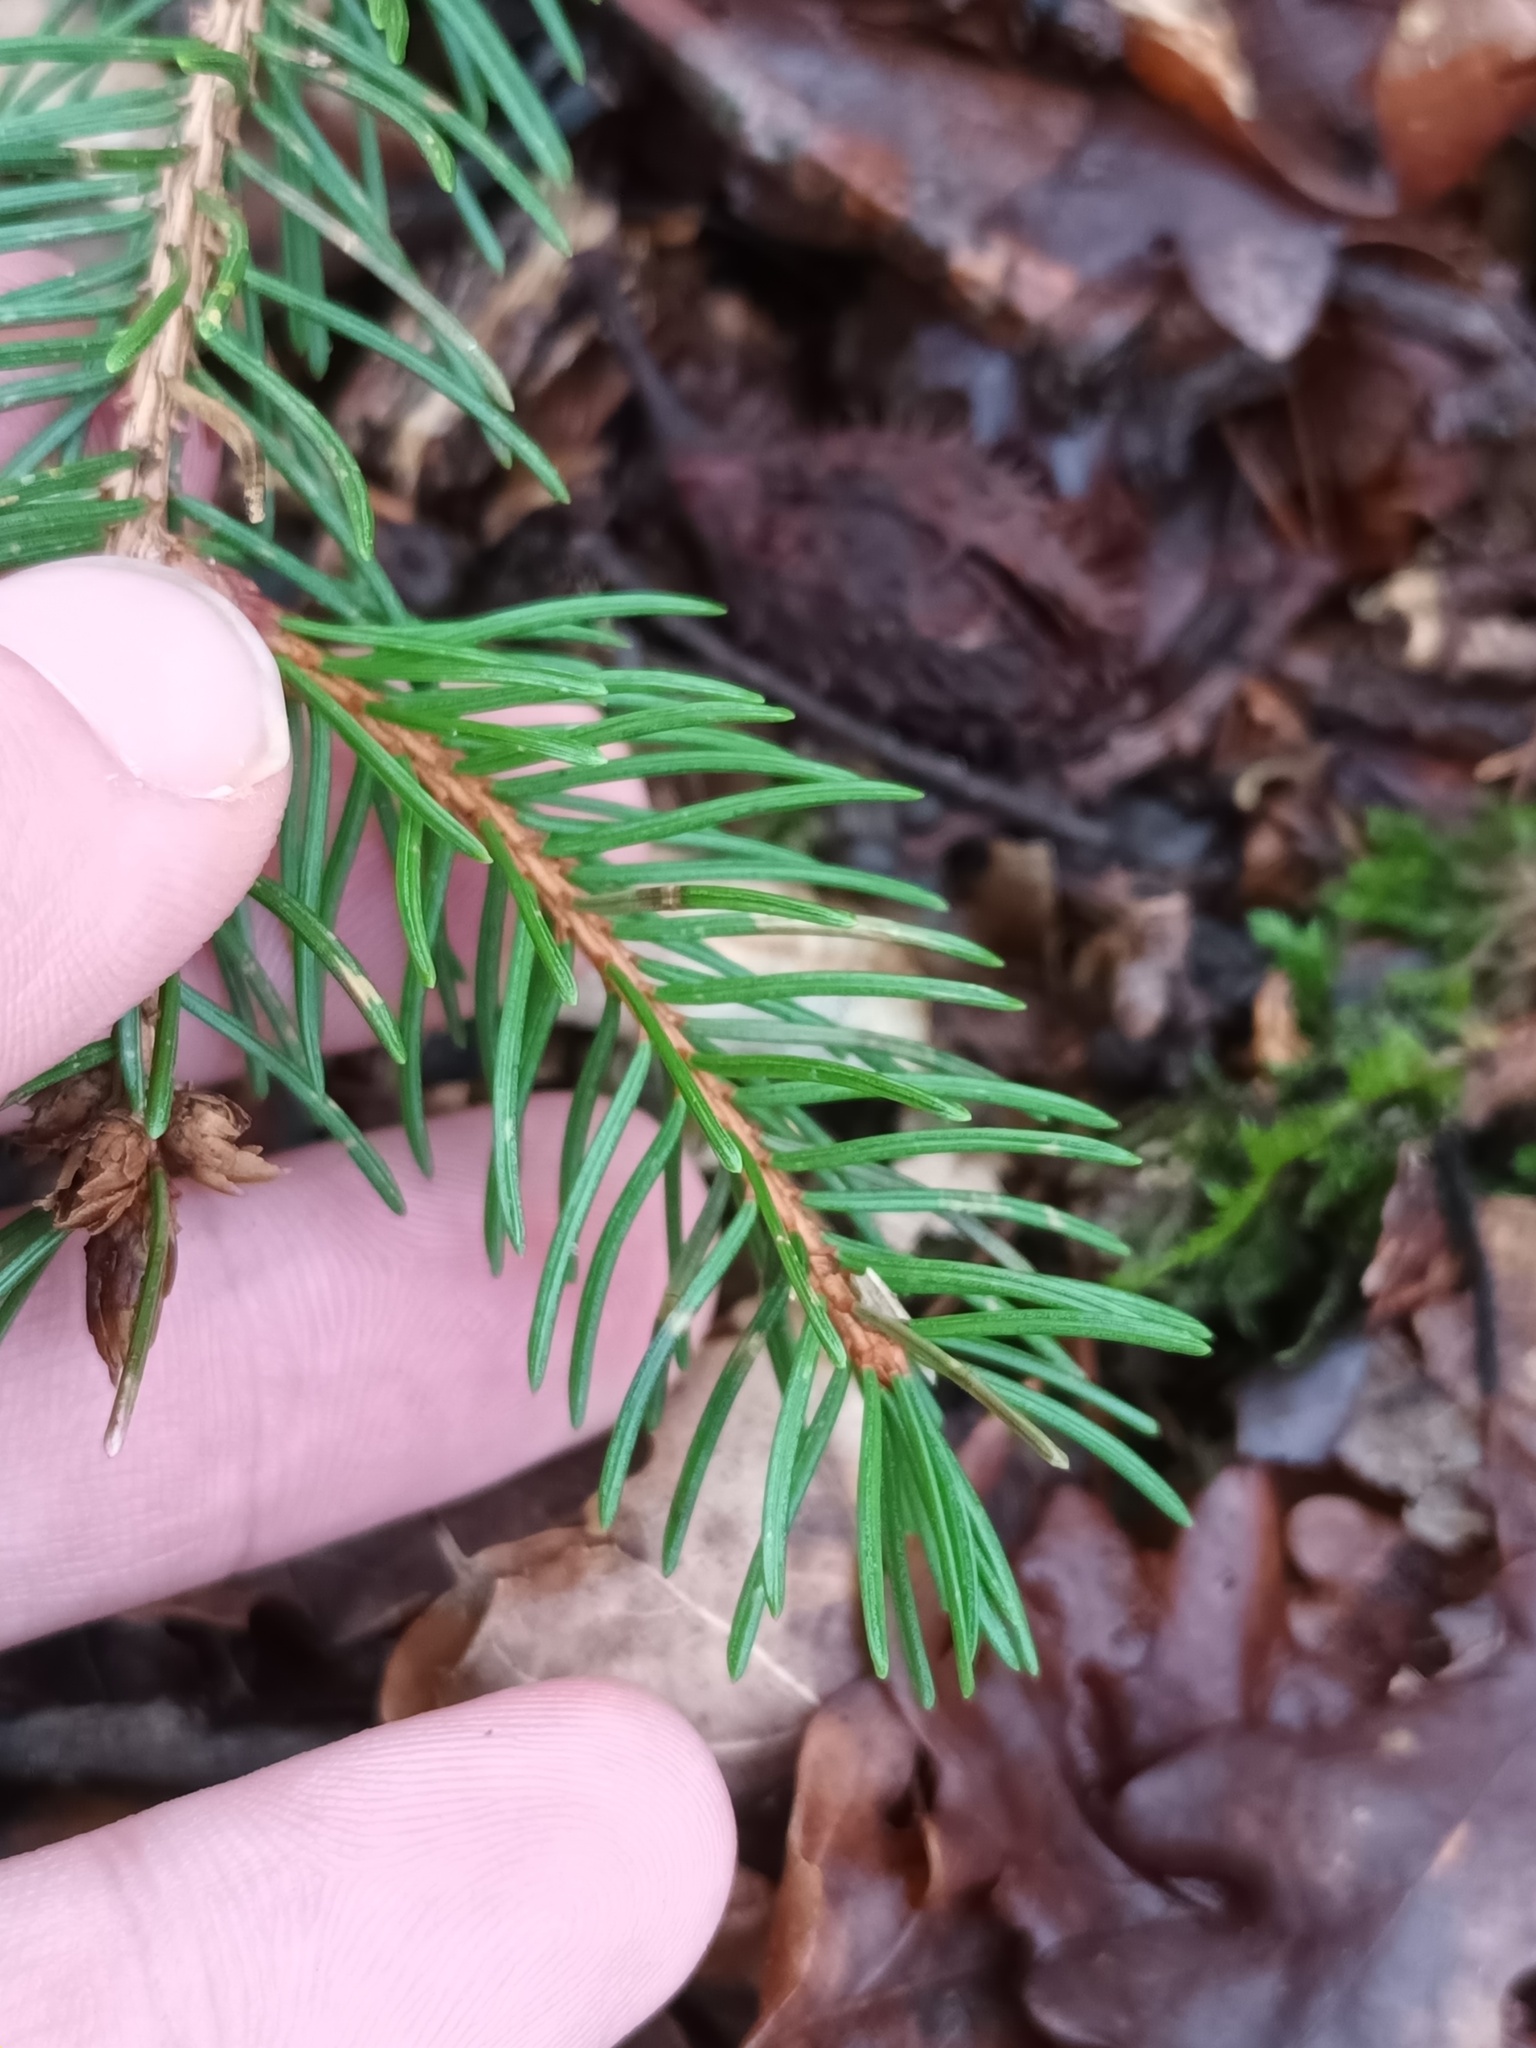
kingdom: Plantae
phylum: Tracheophyta
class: Pinopsida
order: Pinales
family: Pinaceae
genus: Picea
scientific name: Picea abies
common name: Norway spruce
